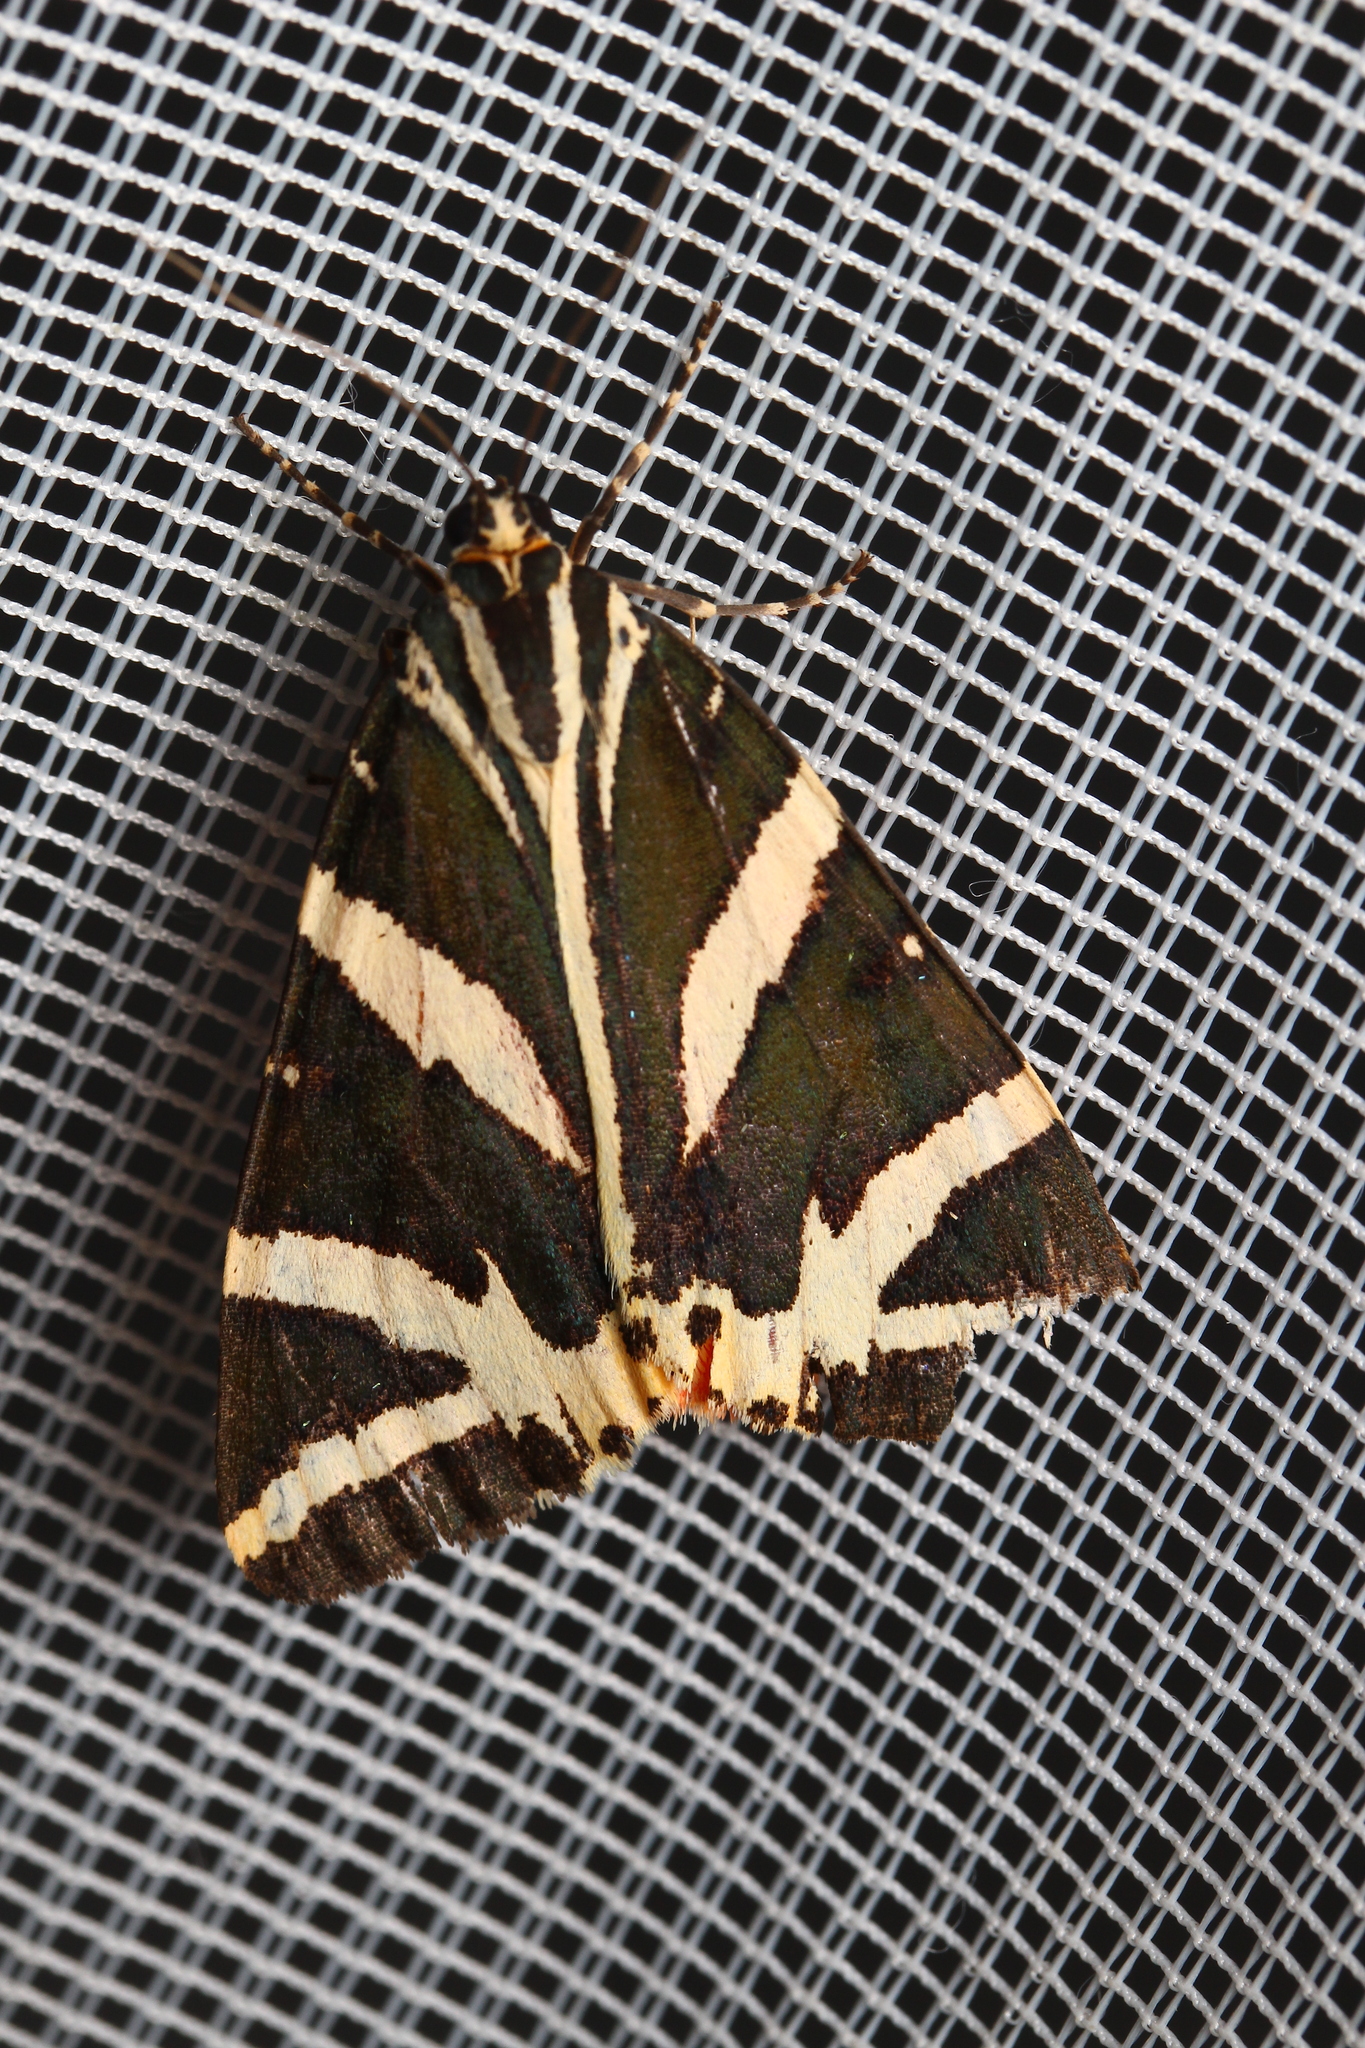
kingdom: Animalia
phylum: Arthropoda
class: Insecta
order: Lepidoptera
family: Erebidae
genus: Euplagia
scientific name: Euplagia quadripunctaria
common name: Jersey tiger
